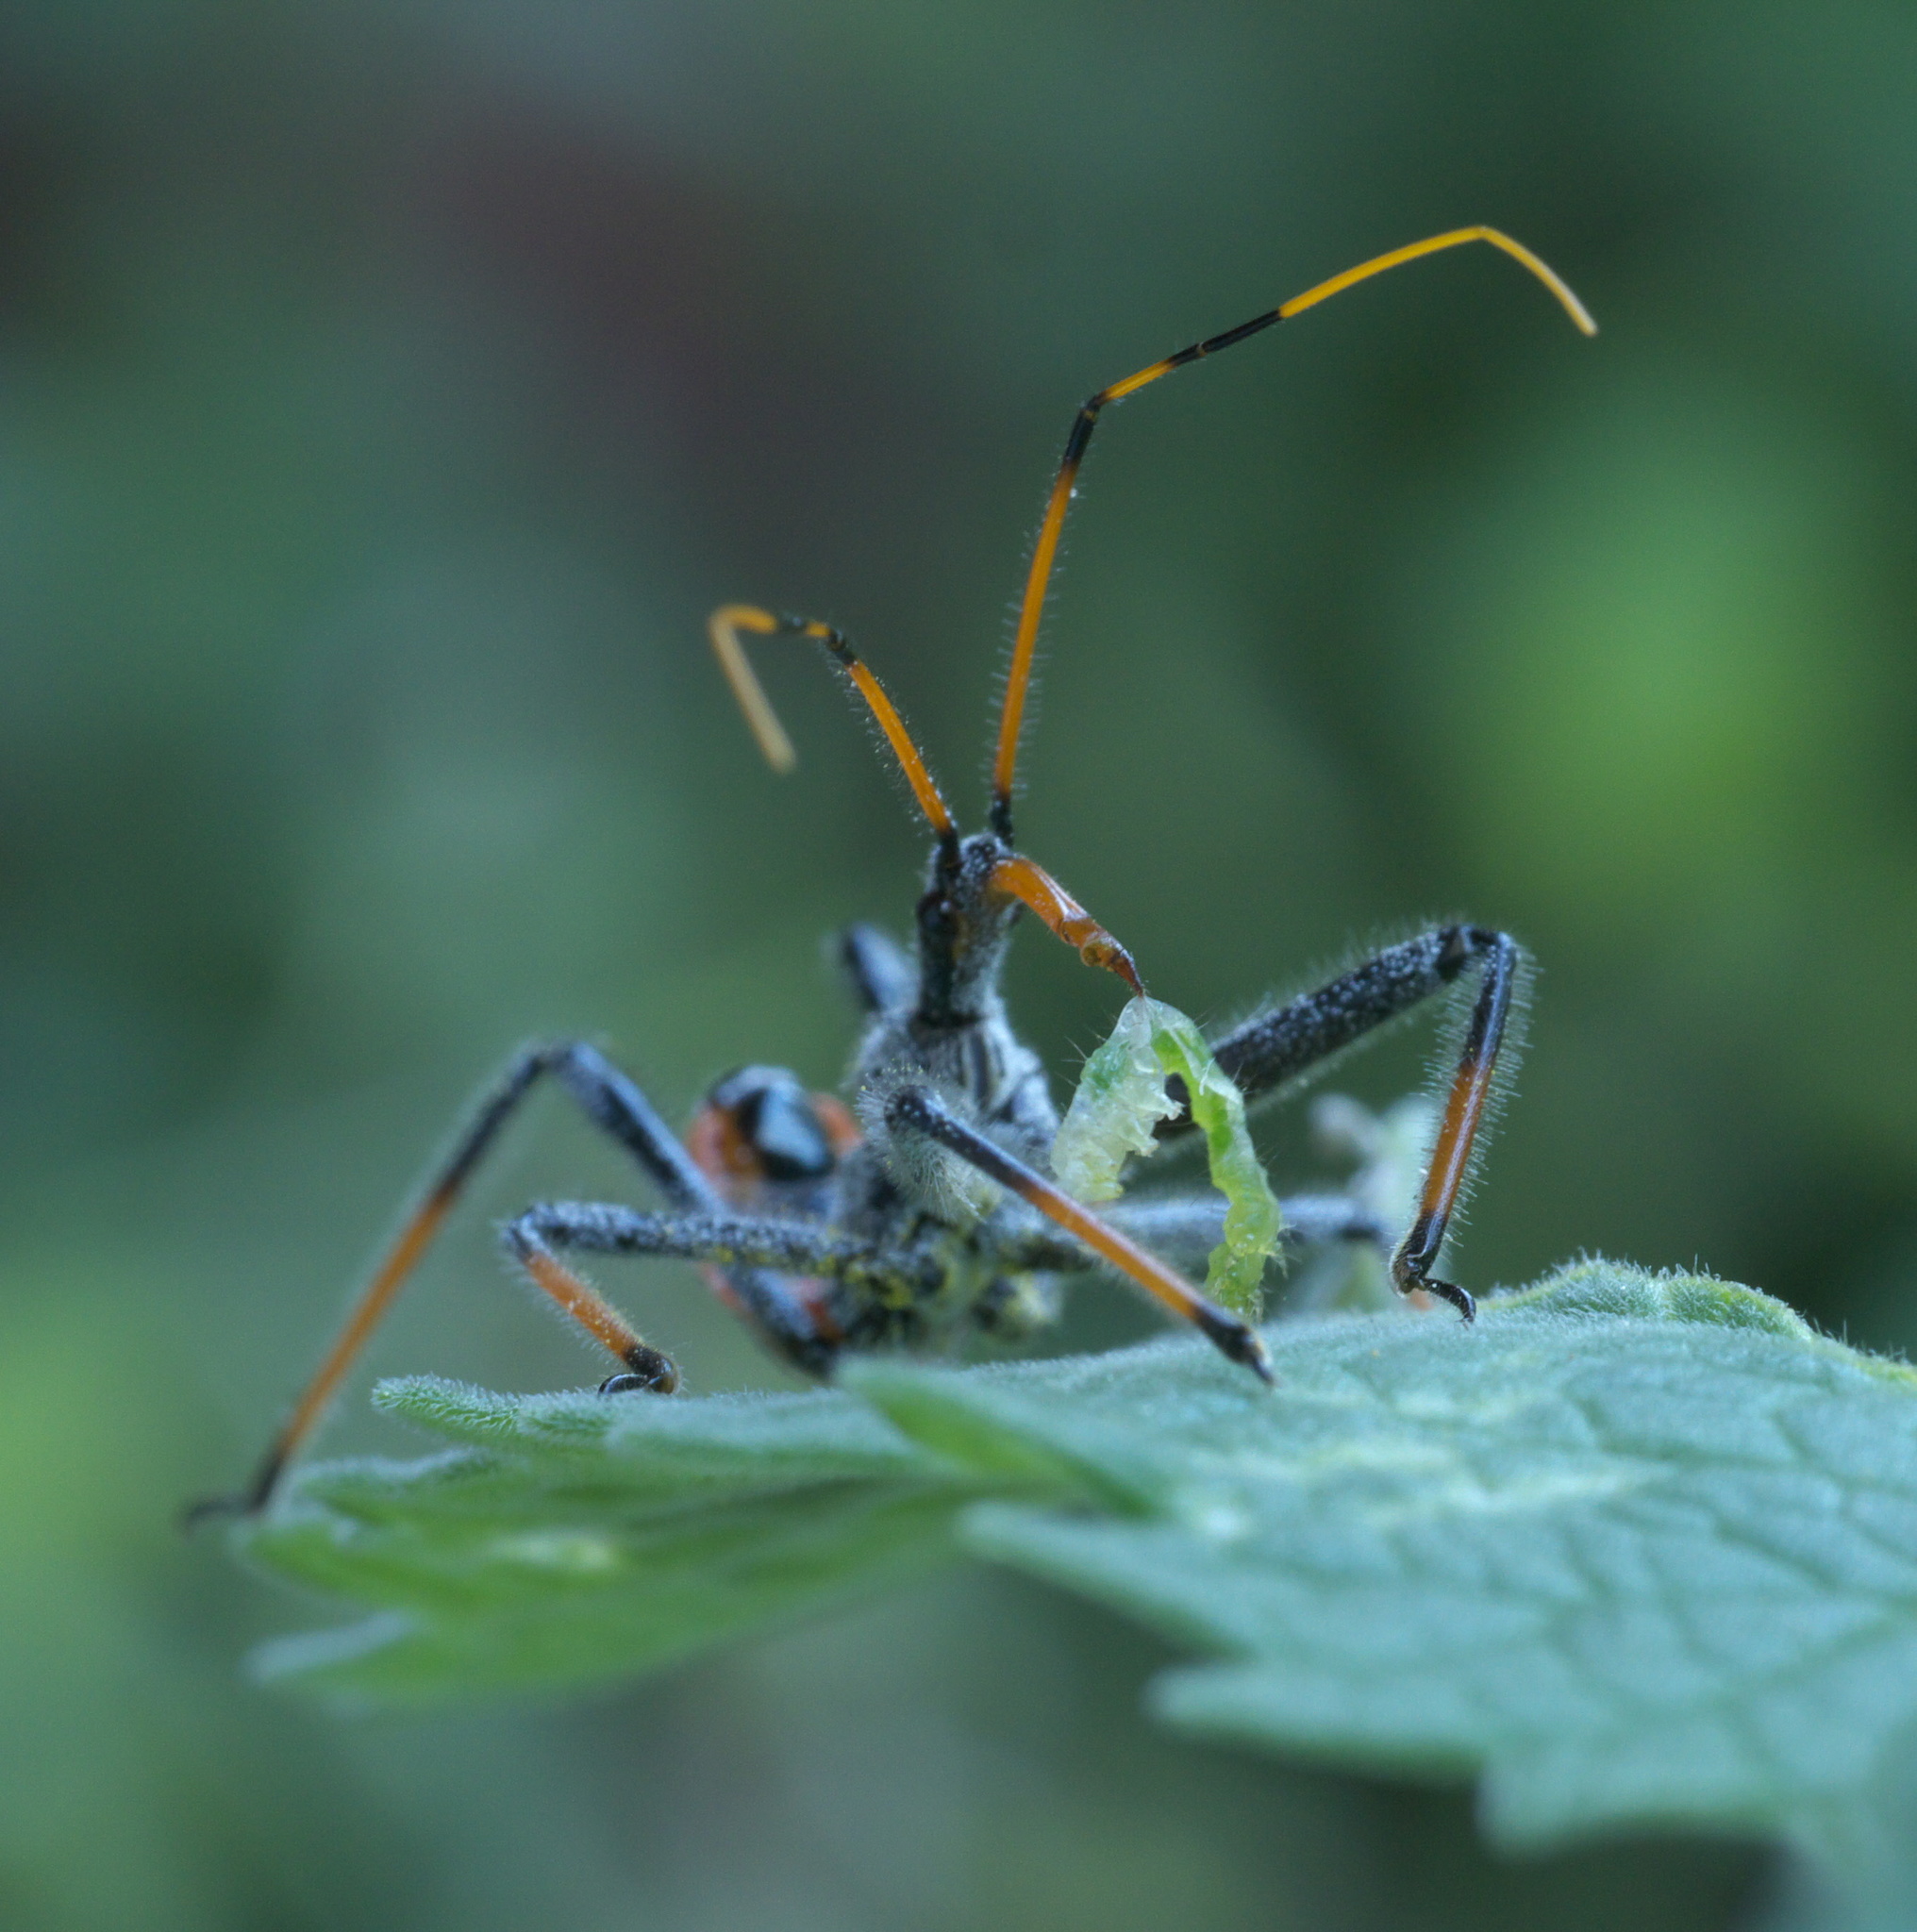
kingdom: Animalia
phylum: Arthropoda
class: Insecta
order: Hemiptera
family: Reduviidae
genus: Arilus
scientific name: Arilus cristatus
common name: North american wheel bug
